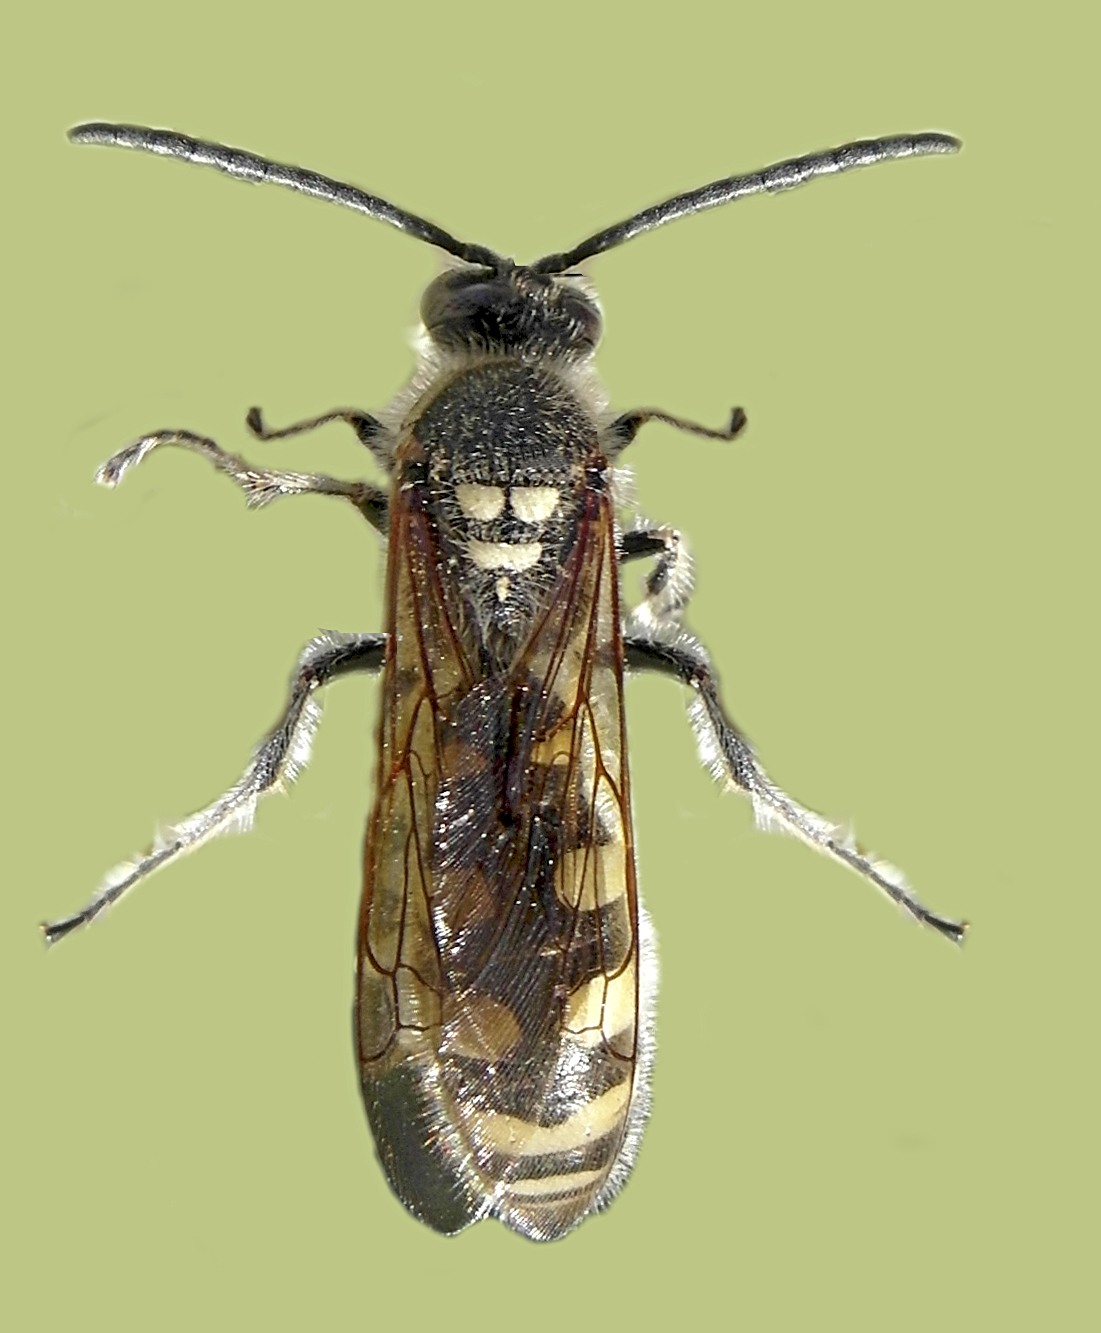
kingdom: Animalia
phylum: Arthropoda
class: Insecta
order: Hymenoptera
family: Vespidae
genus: Vespa
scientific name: Vespa sexmaculata
